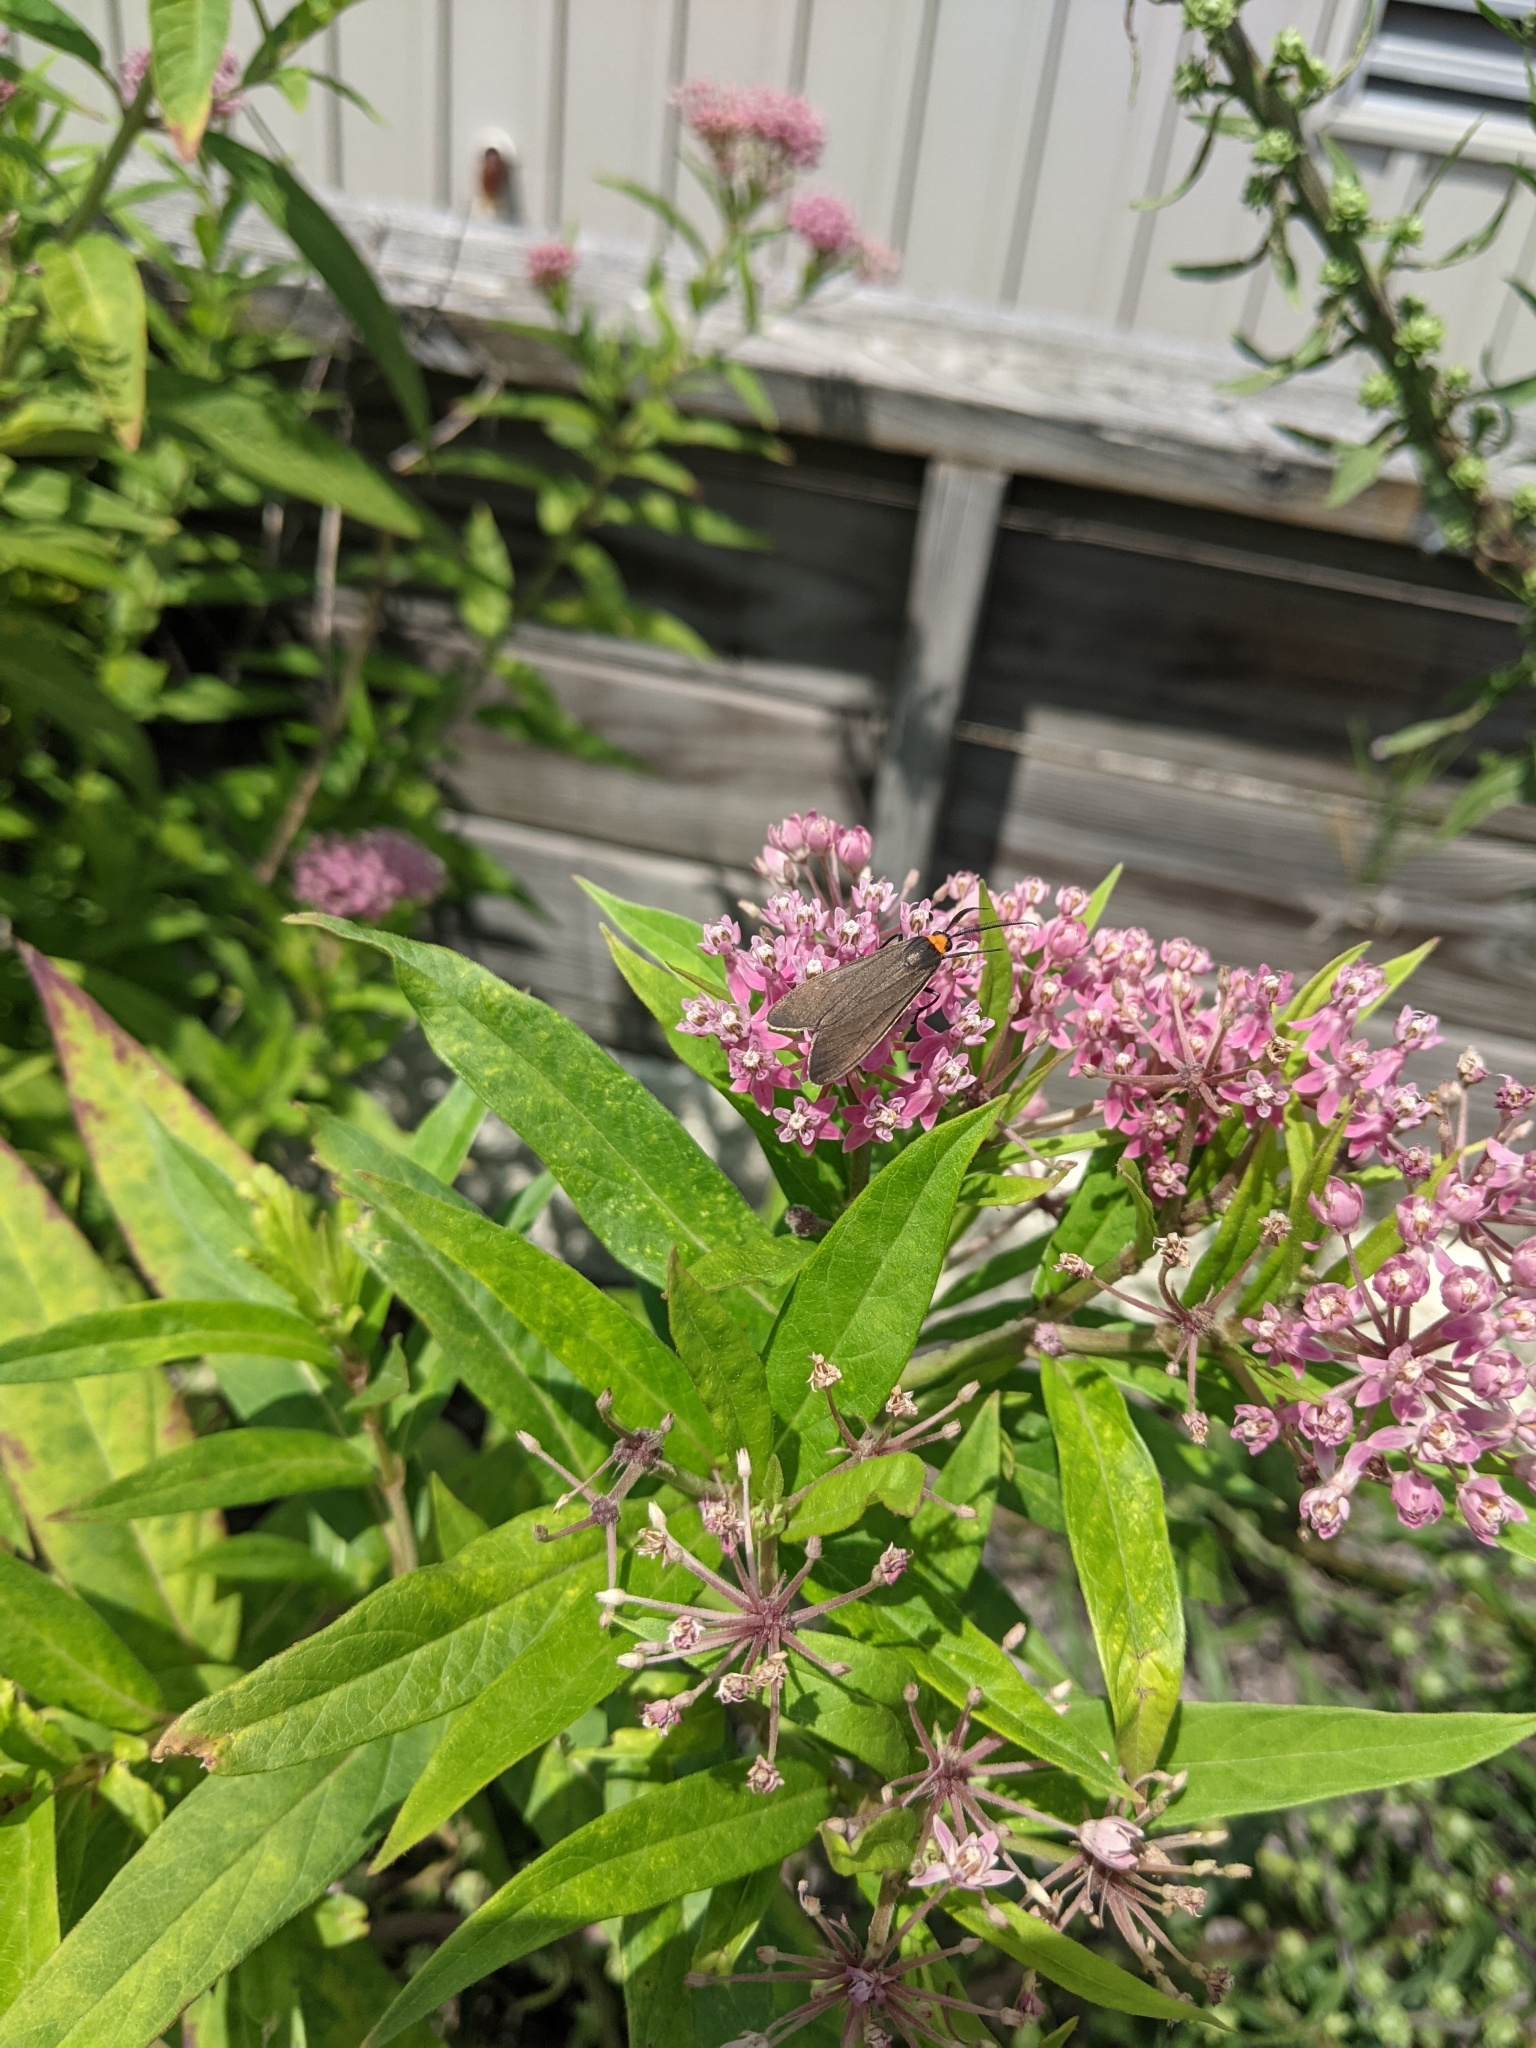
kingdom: Animalia
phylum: Arthropoda
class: Insecta
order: Lepidoptera
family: Erebidae
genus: Cisseps
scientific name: Cisseps fulvicollis
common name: Yellow-collared scape moth
